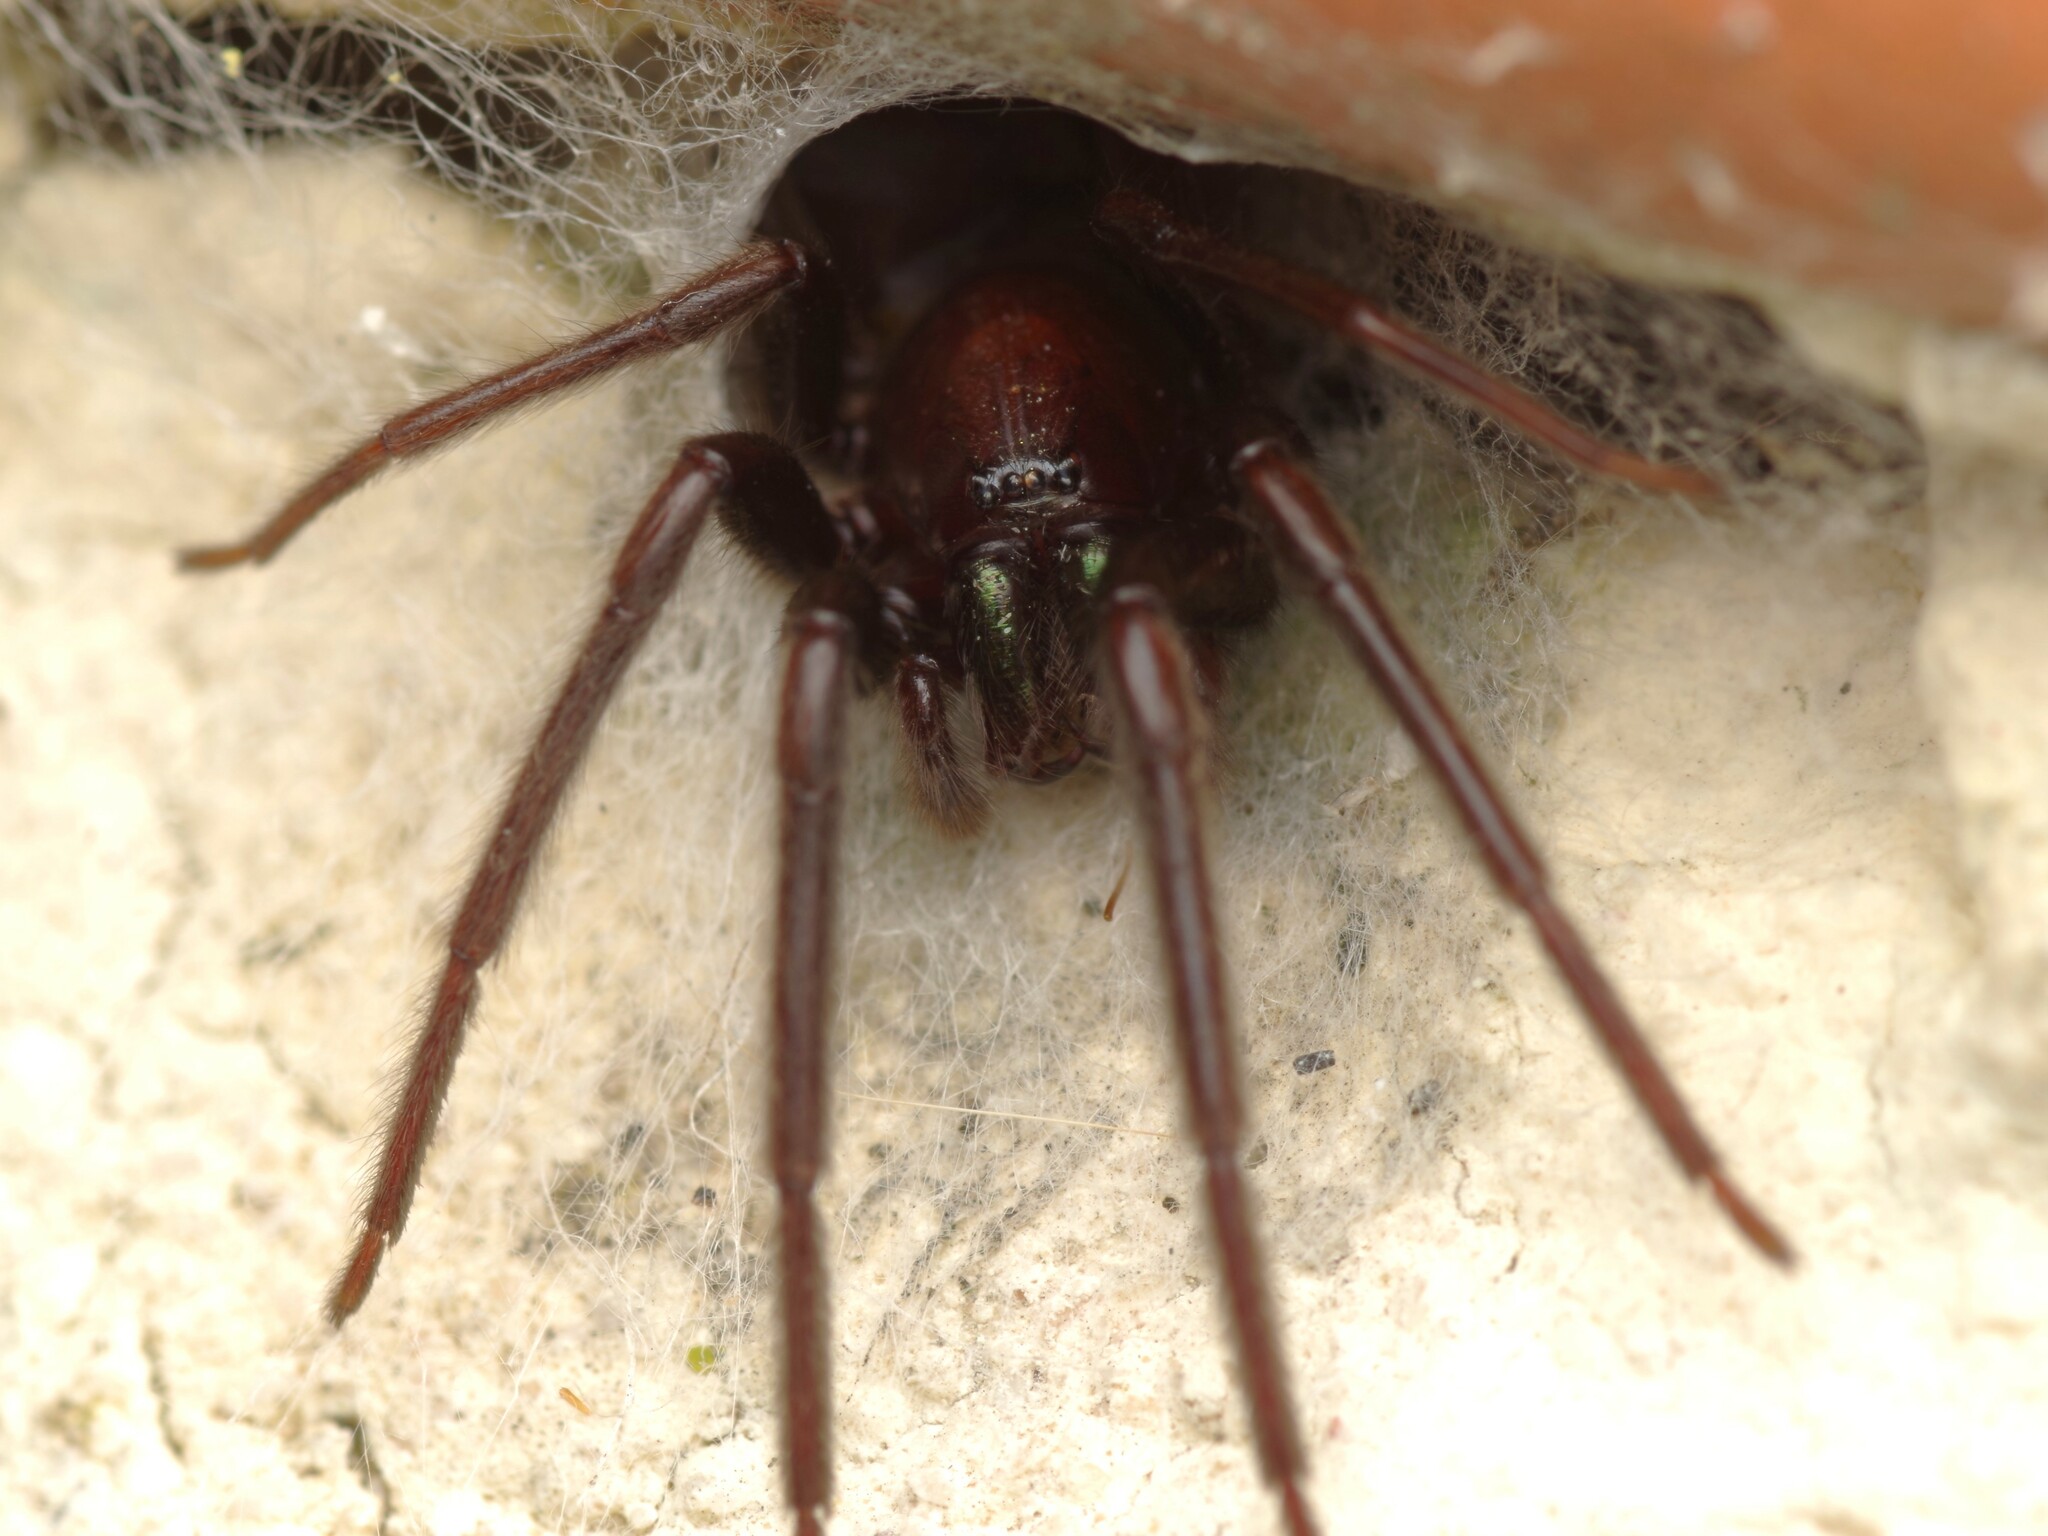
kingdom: Animalia
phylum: Arthropoda
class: Arachnida
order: Araneae
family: Segestriidae
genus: Segestria
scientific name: Segestria florentina
